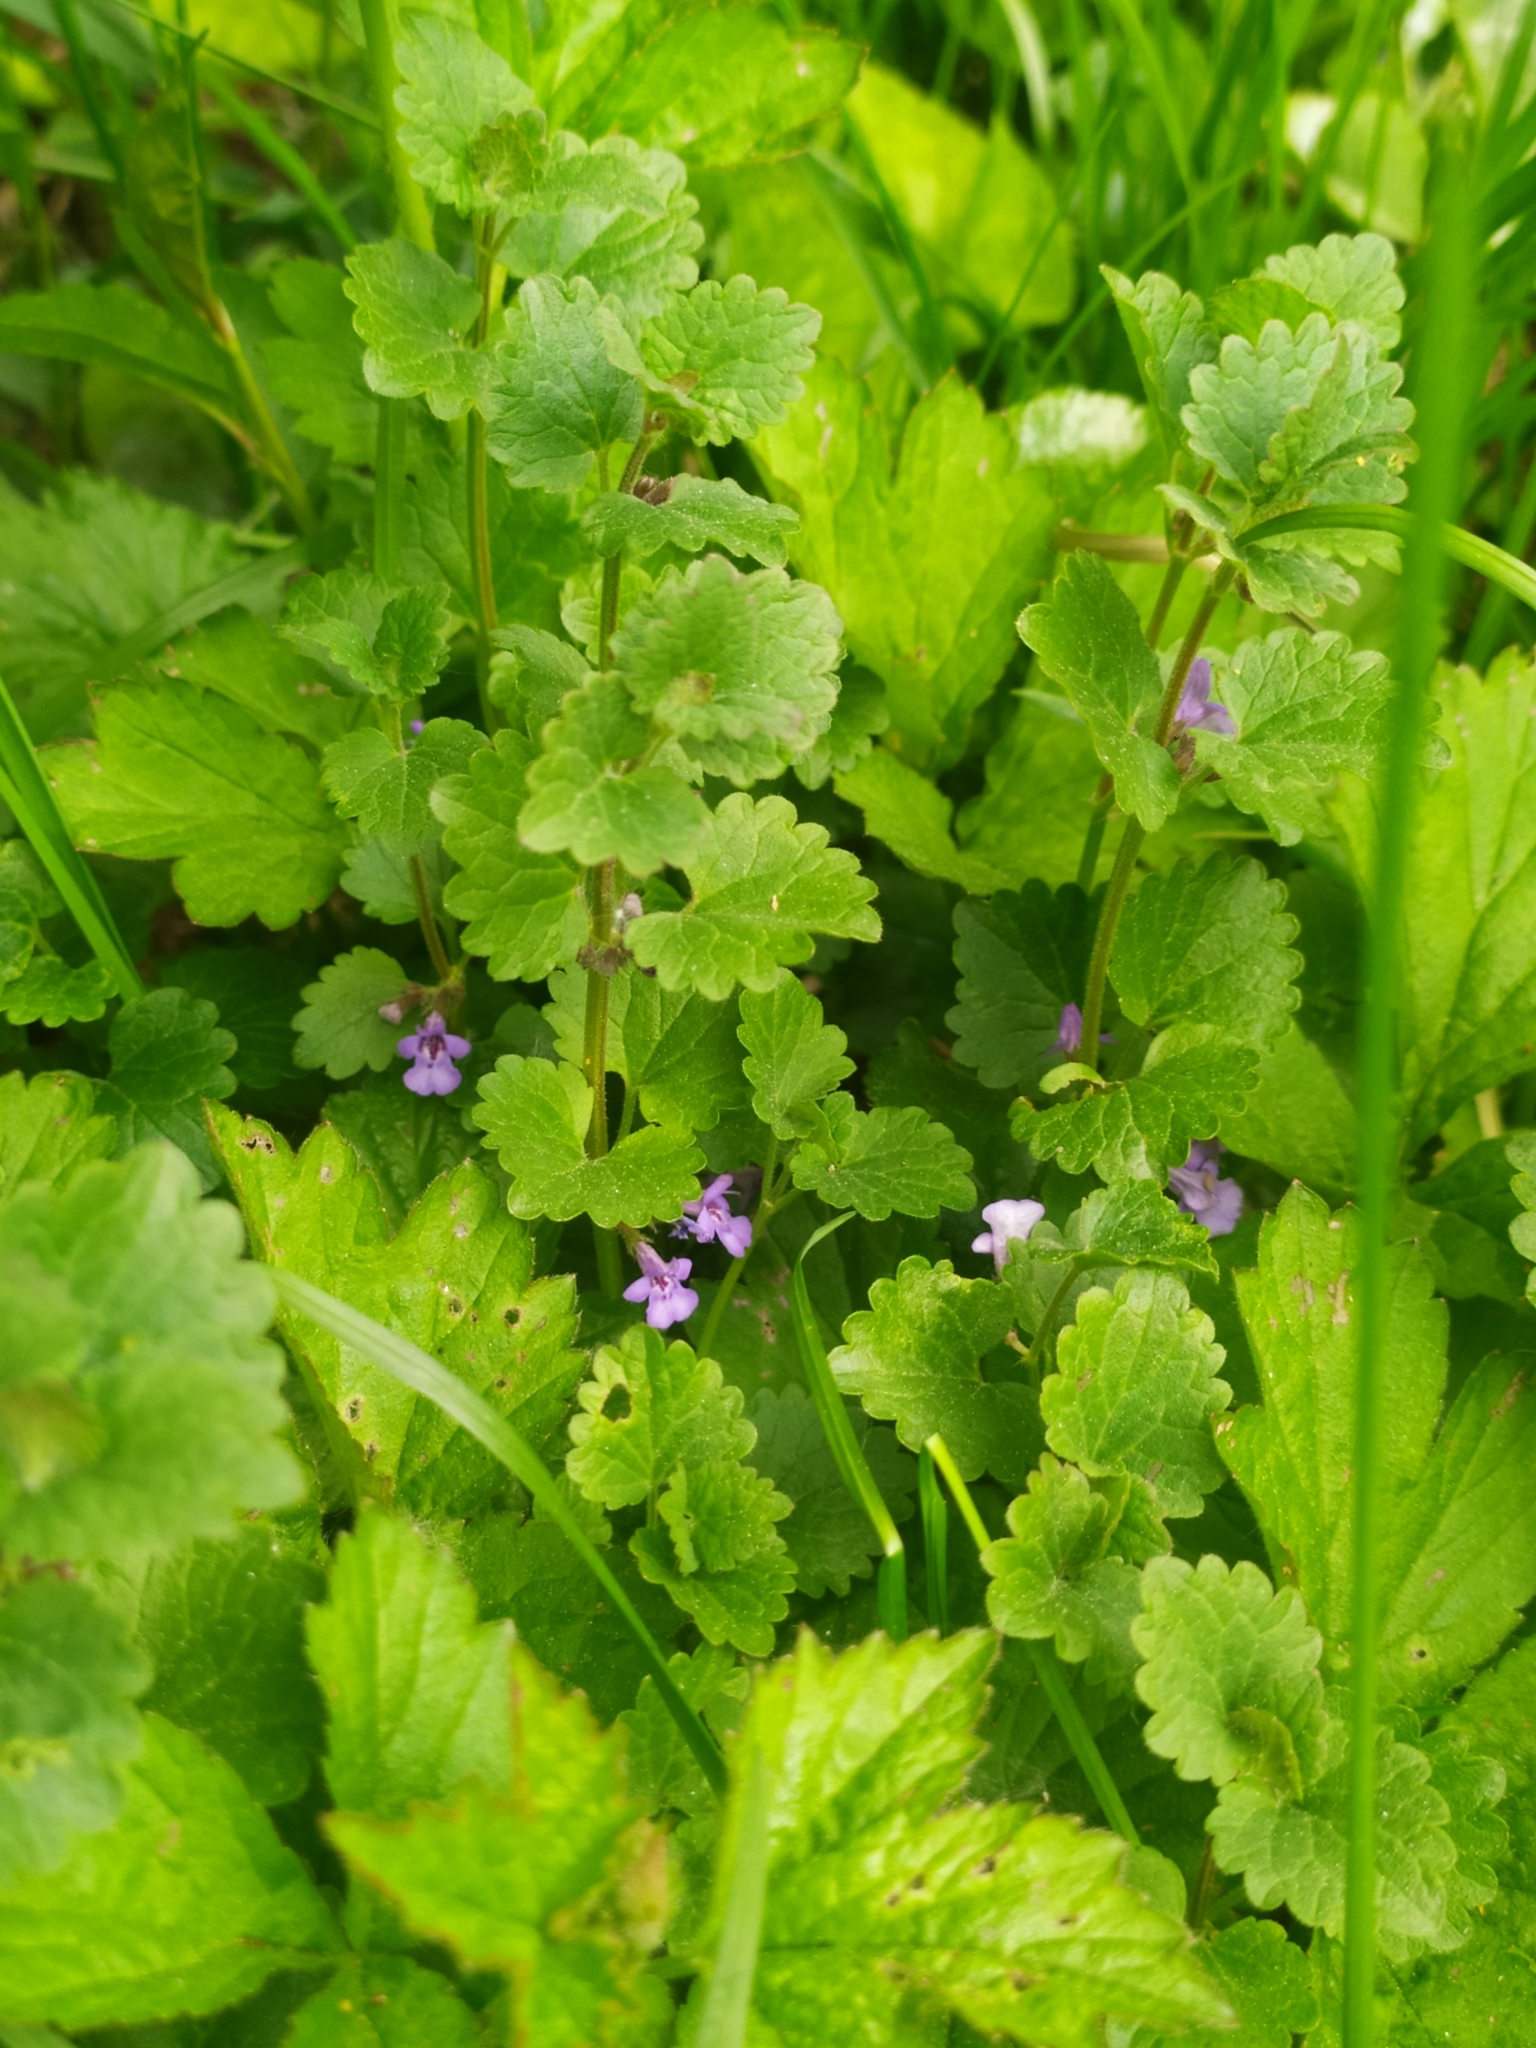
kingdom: Plantae
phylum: Tracheophyta
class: Magnoliopsida
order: Lamiales
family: Lamiaceae
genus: Glechoma
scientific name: Glechoma hederacea
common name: Ground ivy
